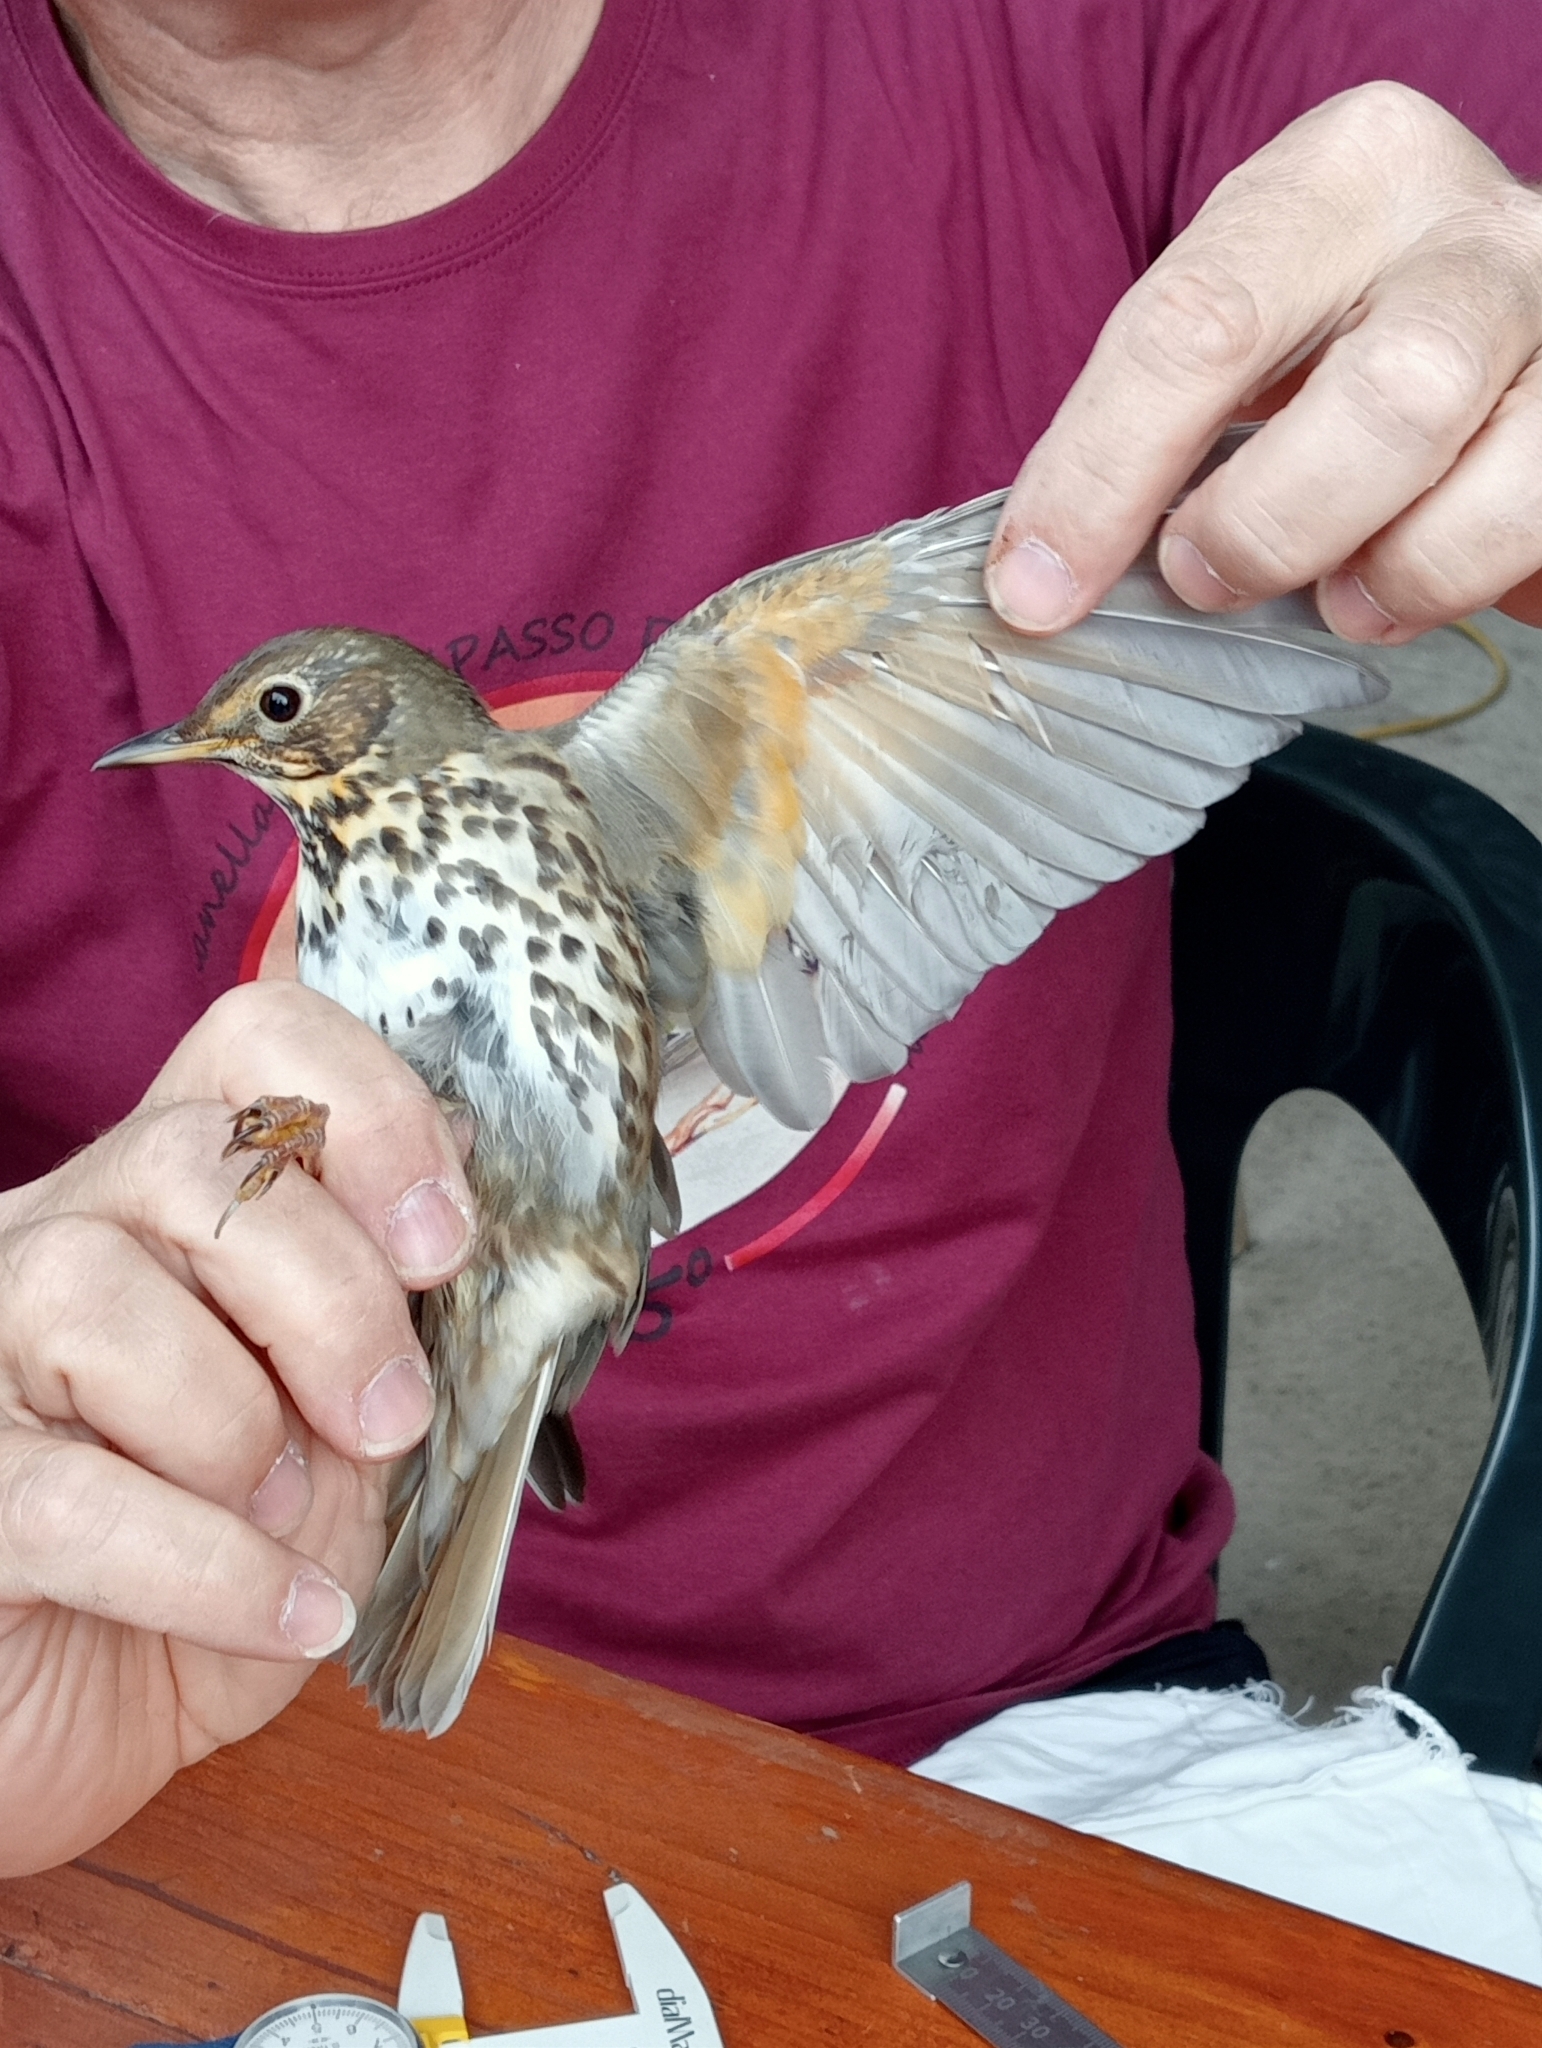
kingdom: Animalia
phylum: Chordata
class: Aves
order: Passeriformes
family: Turdidae
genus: Turdus
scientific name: Turdus philomelos
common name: Song thrush
